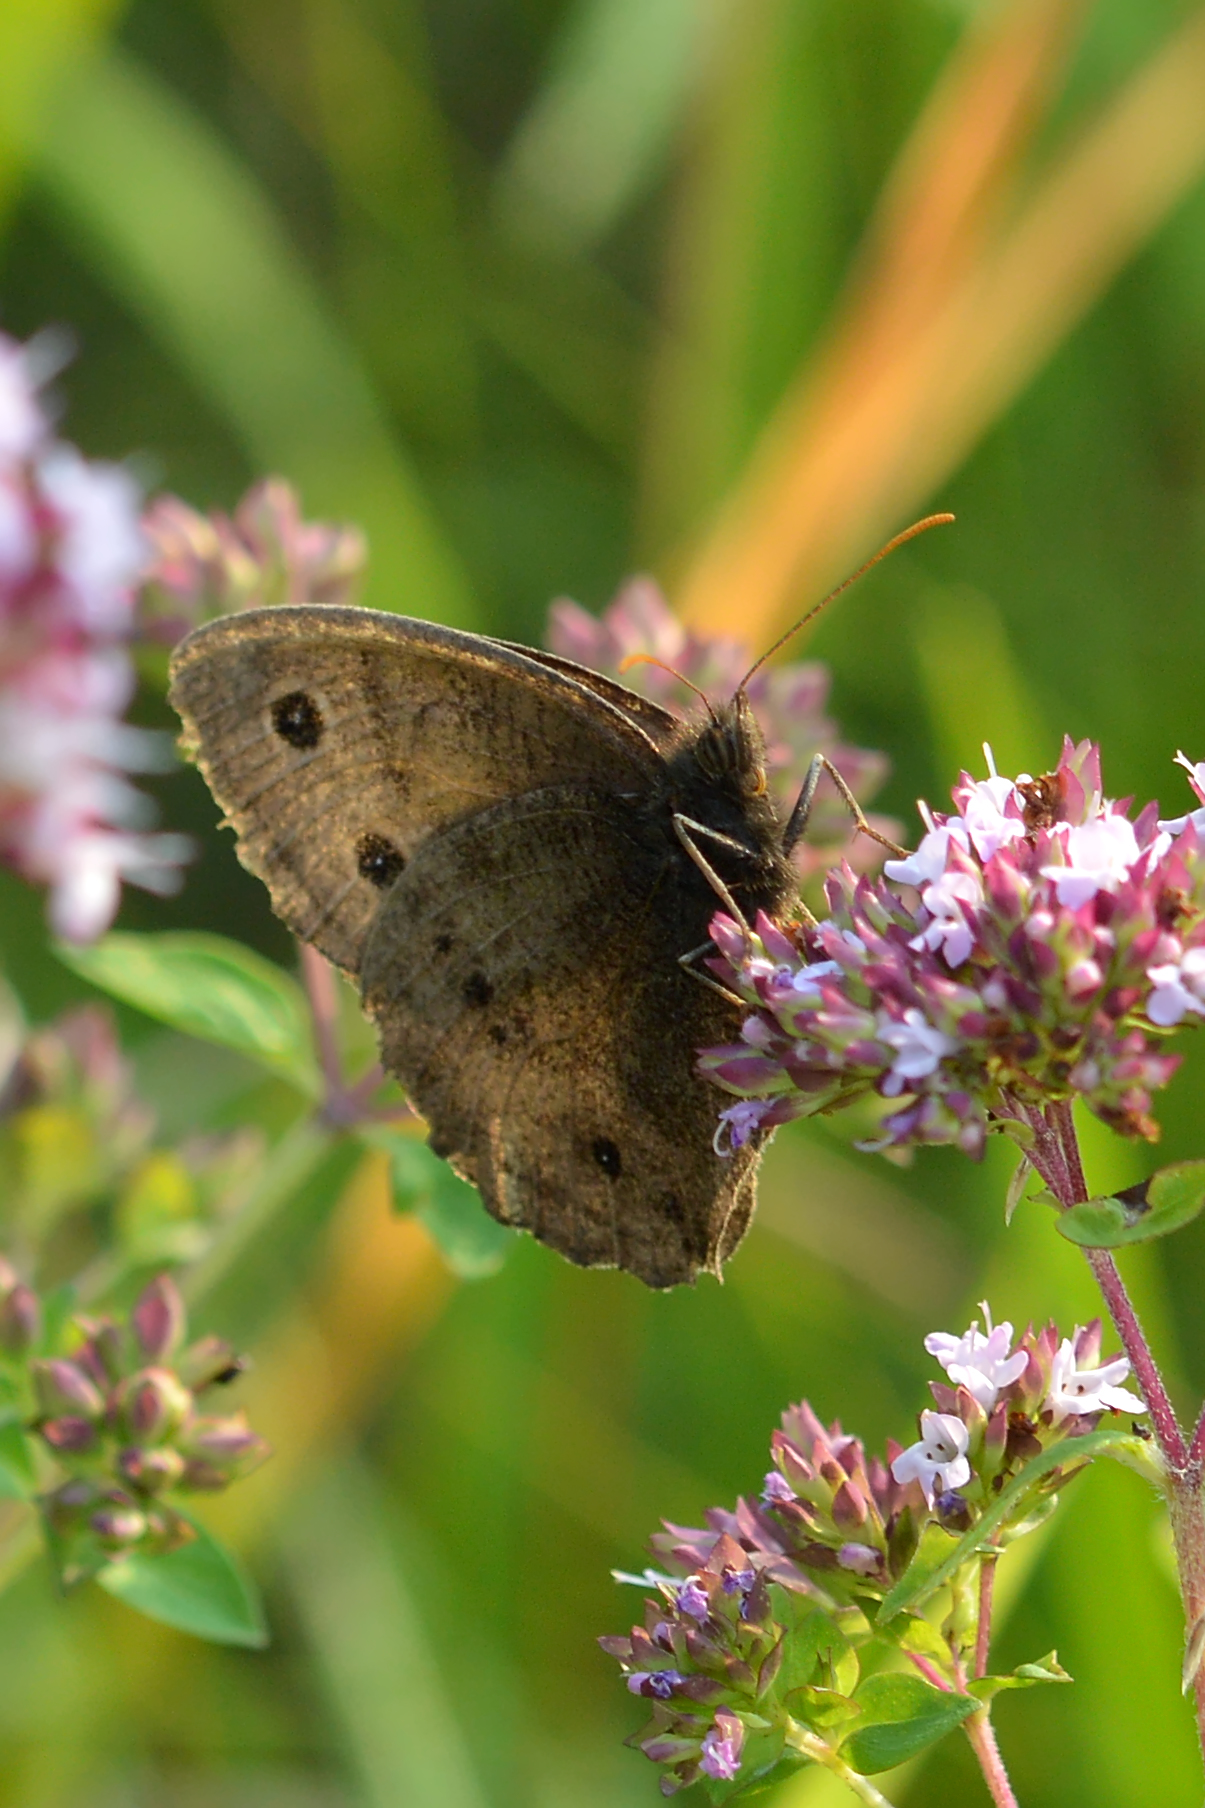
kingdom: Animalia
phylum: Arthropoda
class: Insecta
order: Lepidoptera
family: Nymphalidae
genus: Cercyonis
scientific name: Cercyonis pegala
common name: Common wood-nymph
